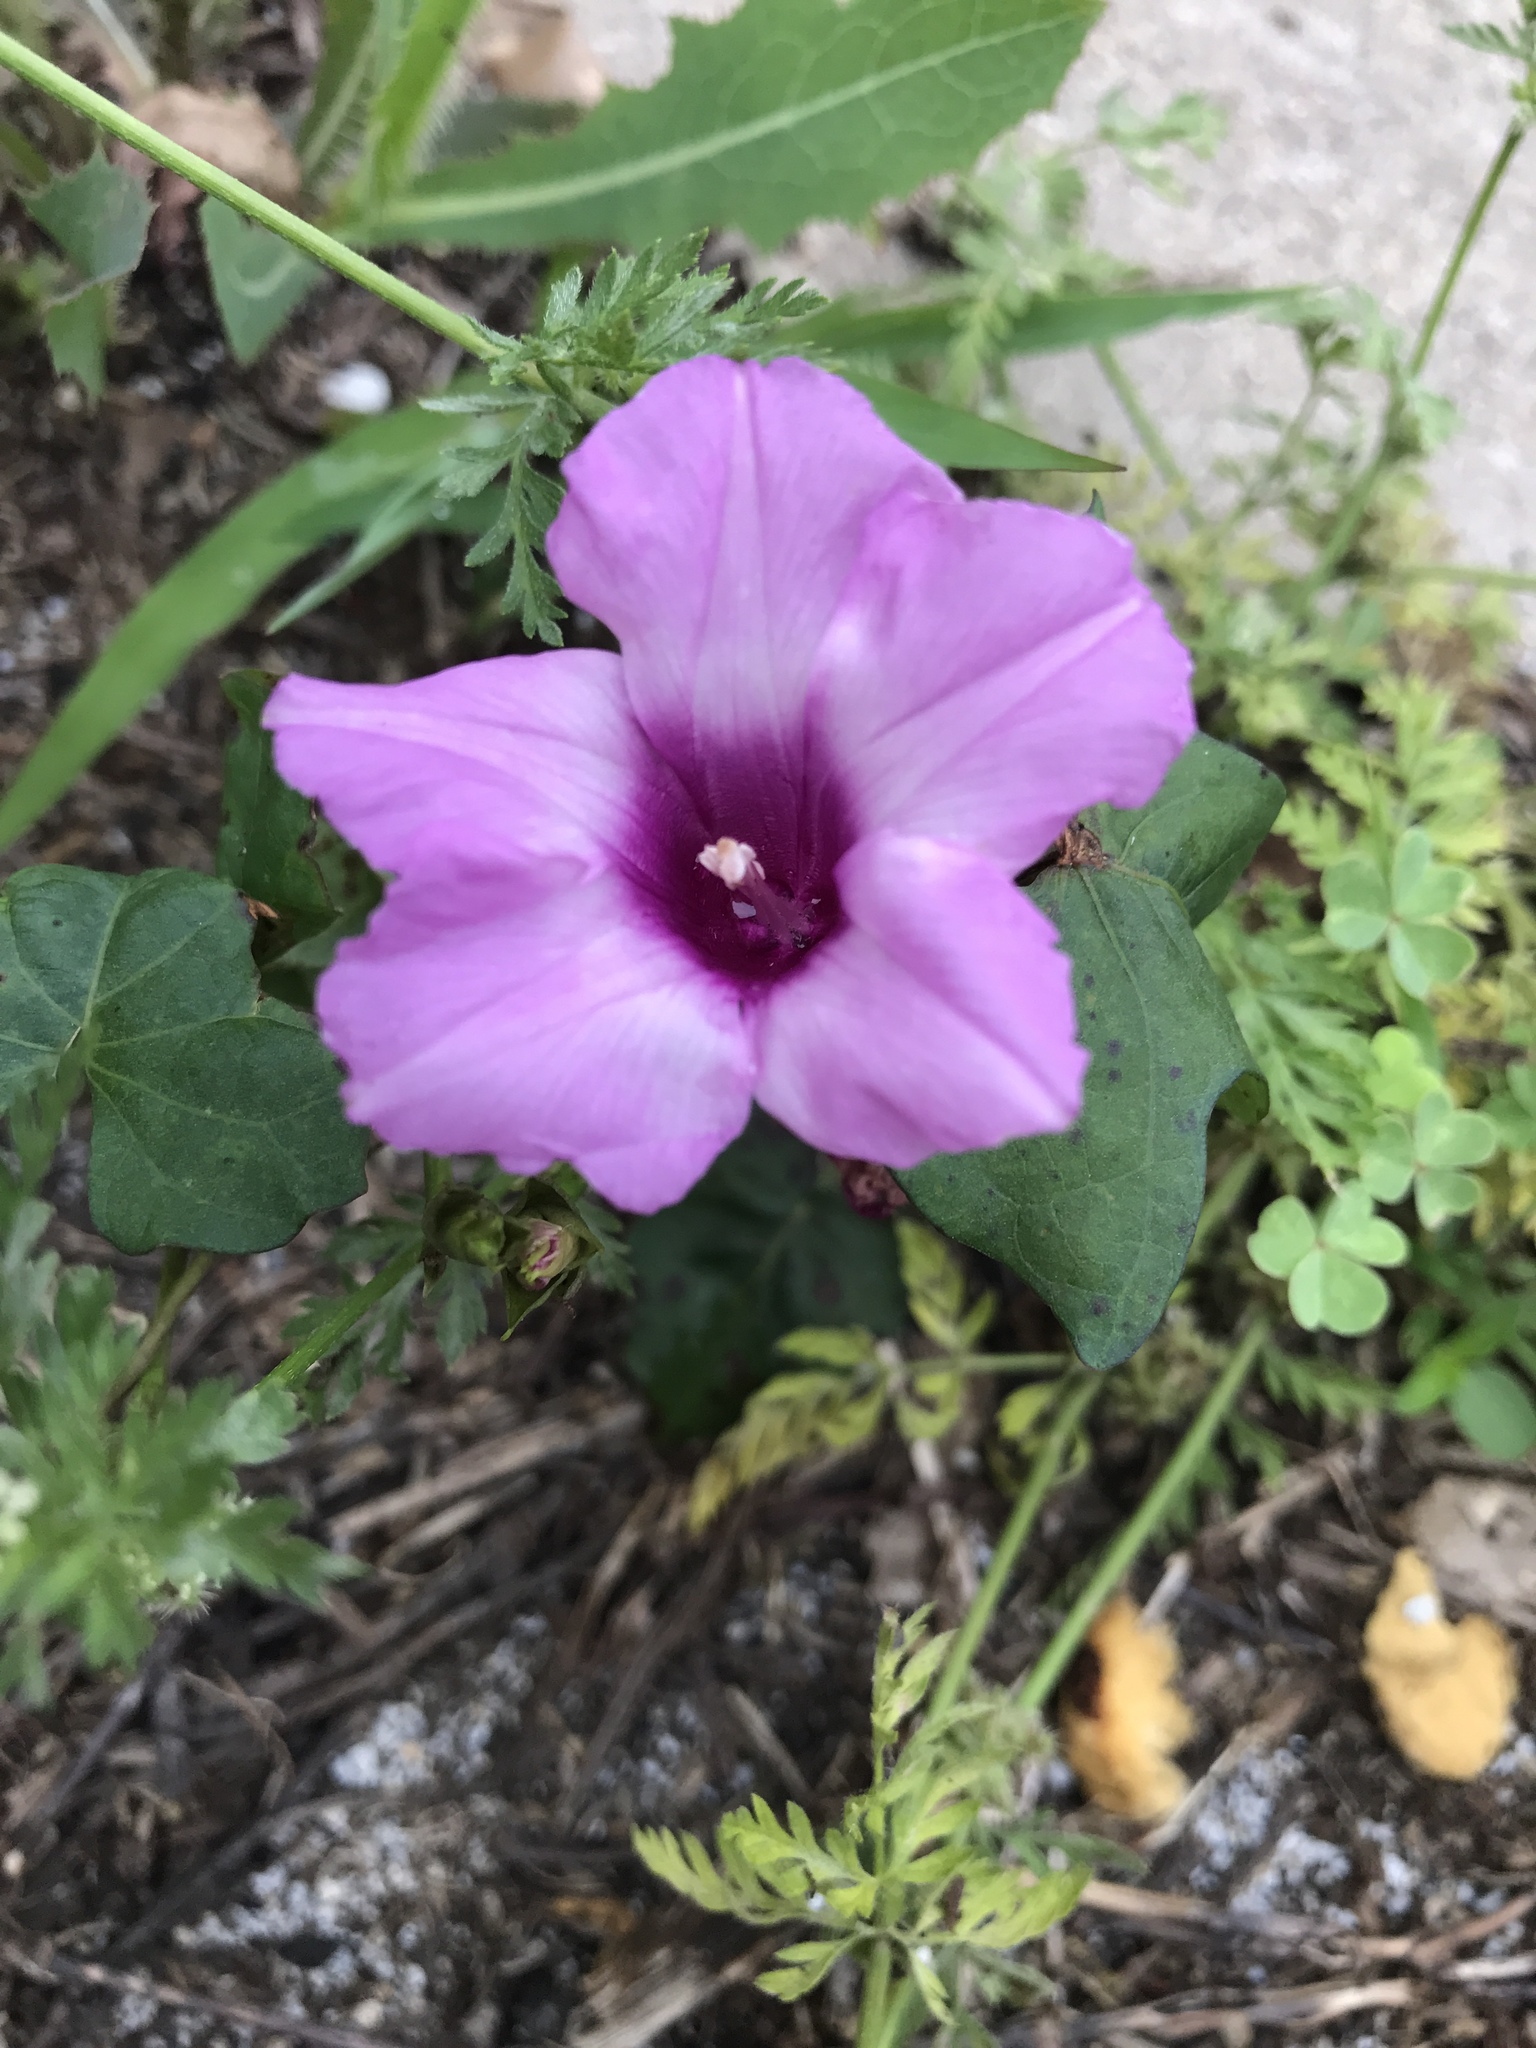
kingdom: Plantae
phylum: Tracheophyta
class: Magnoliopsida
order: Solanales
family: Convolvulaceae
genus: Ipomoea
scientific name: Ipomoea cordatotriloba
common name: Cotton morning glory
